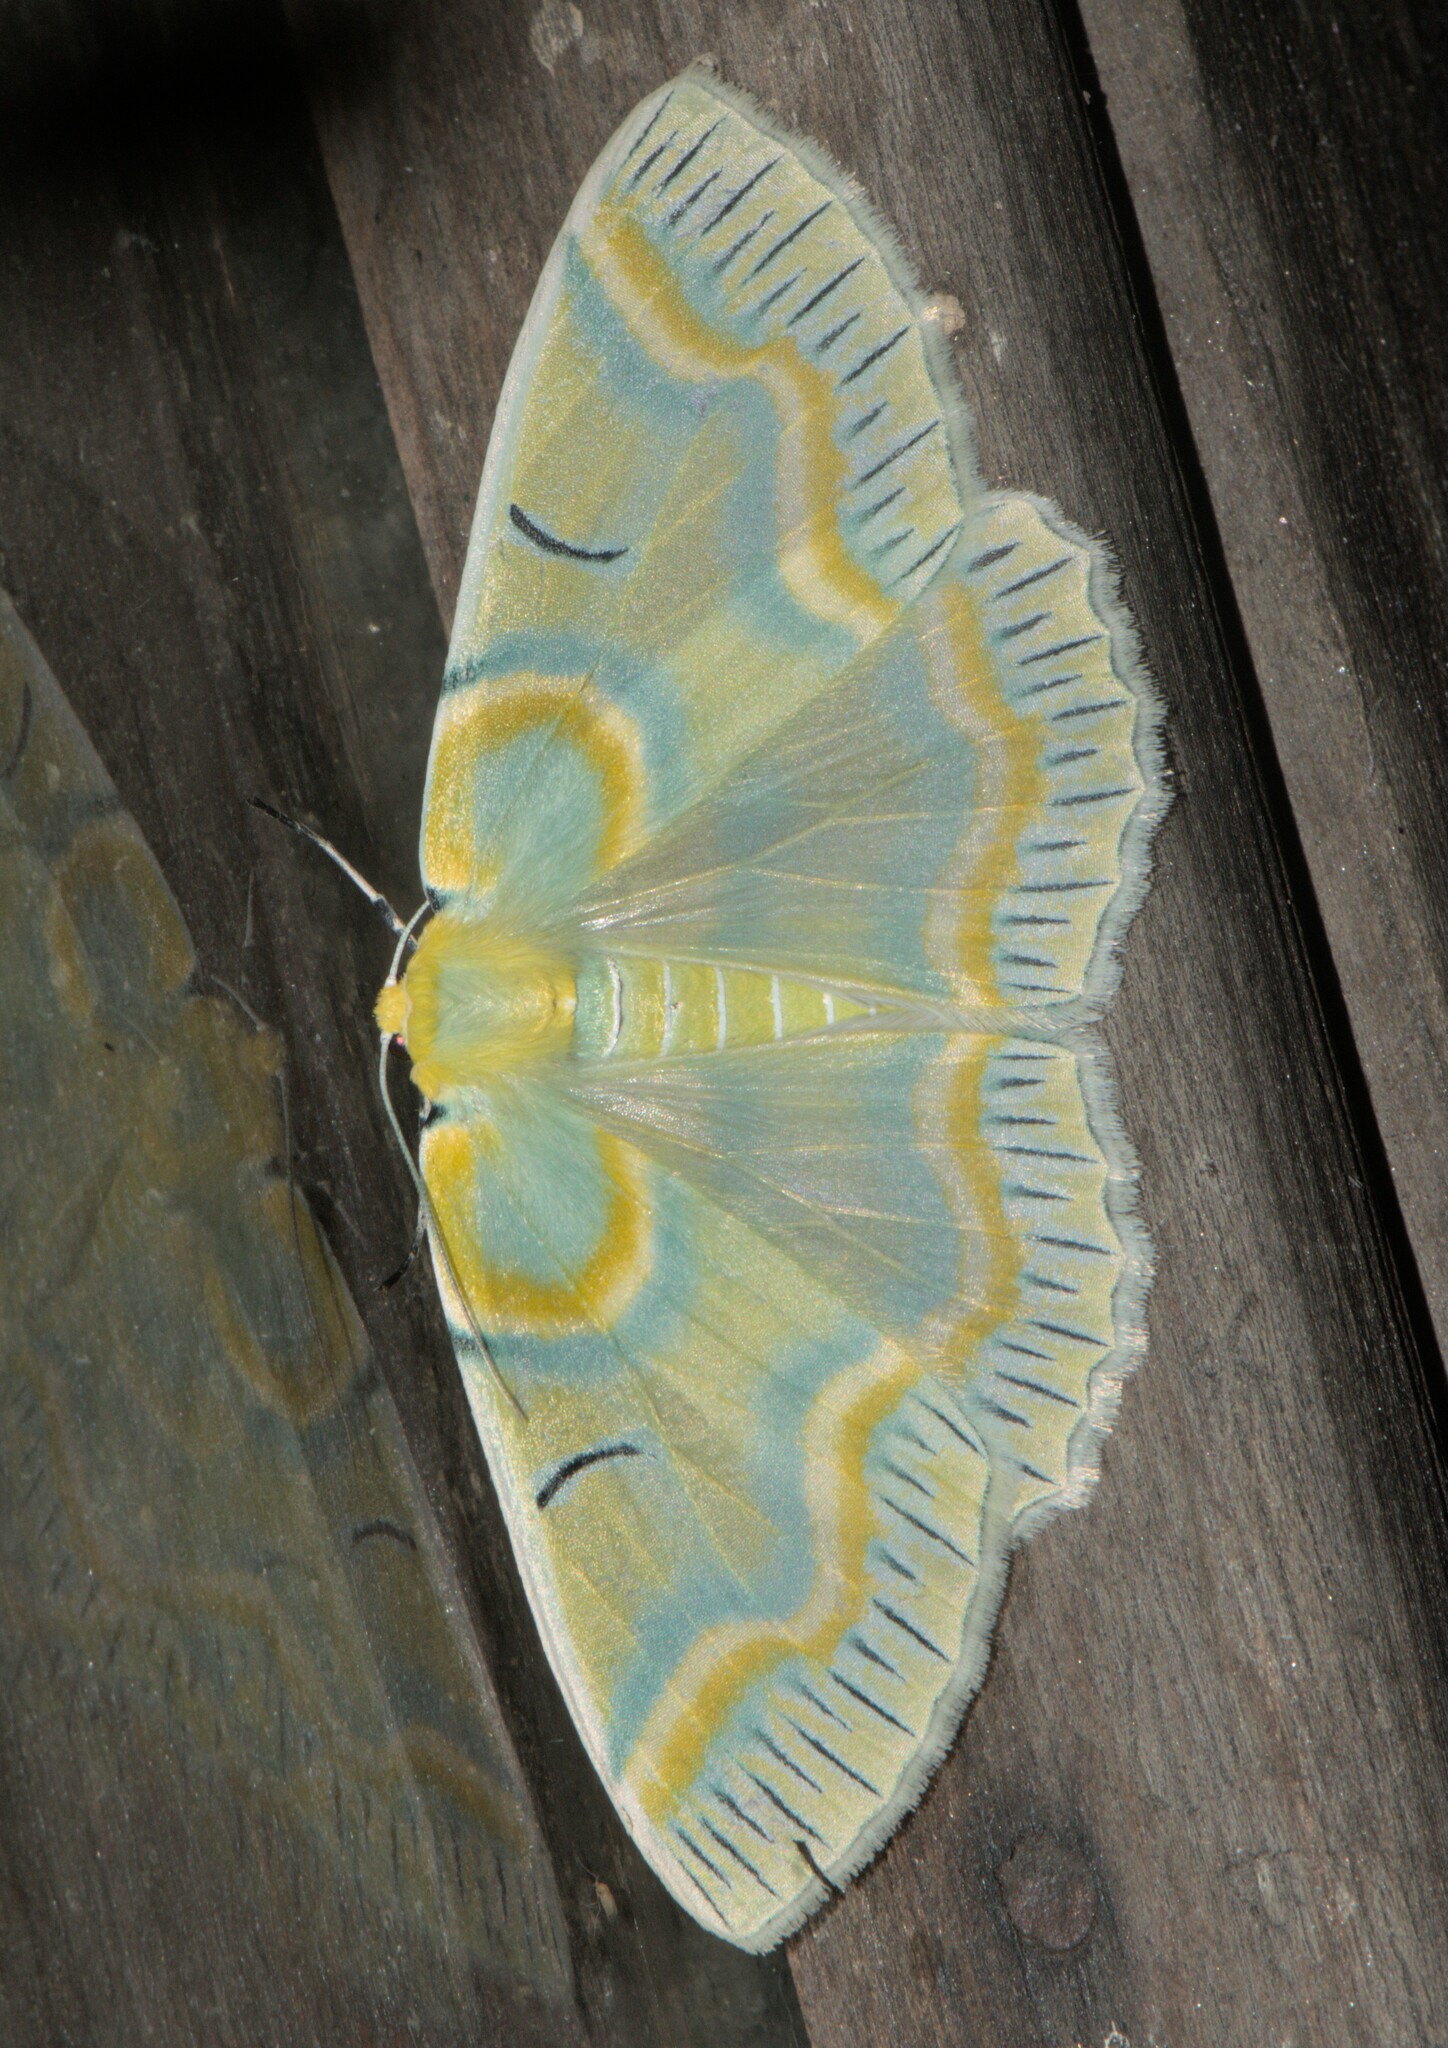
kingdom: Animalia
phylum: Arthropoda
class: Insecta
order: Lepidoptera
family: Geometridae
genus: Iotaphora
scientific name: Iotaphora iridicolor
